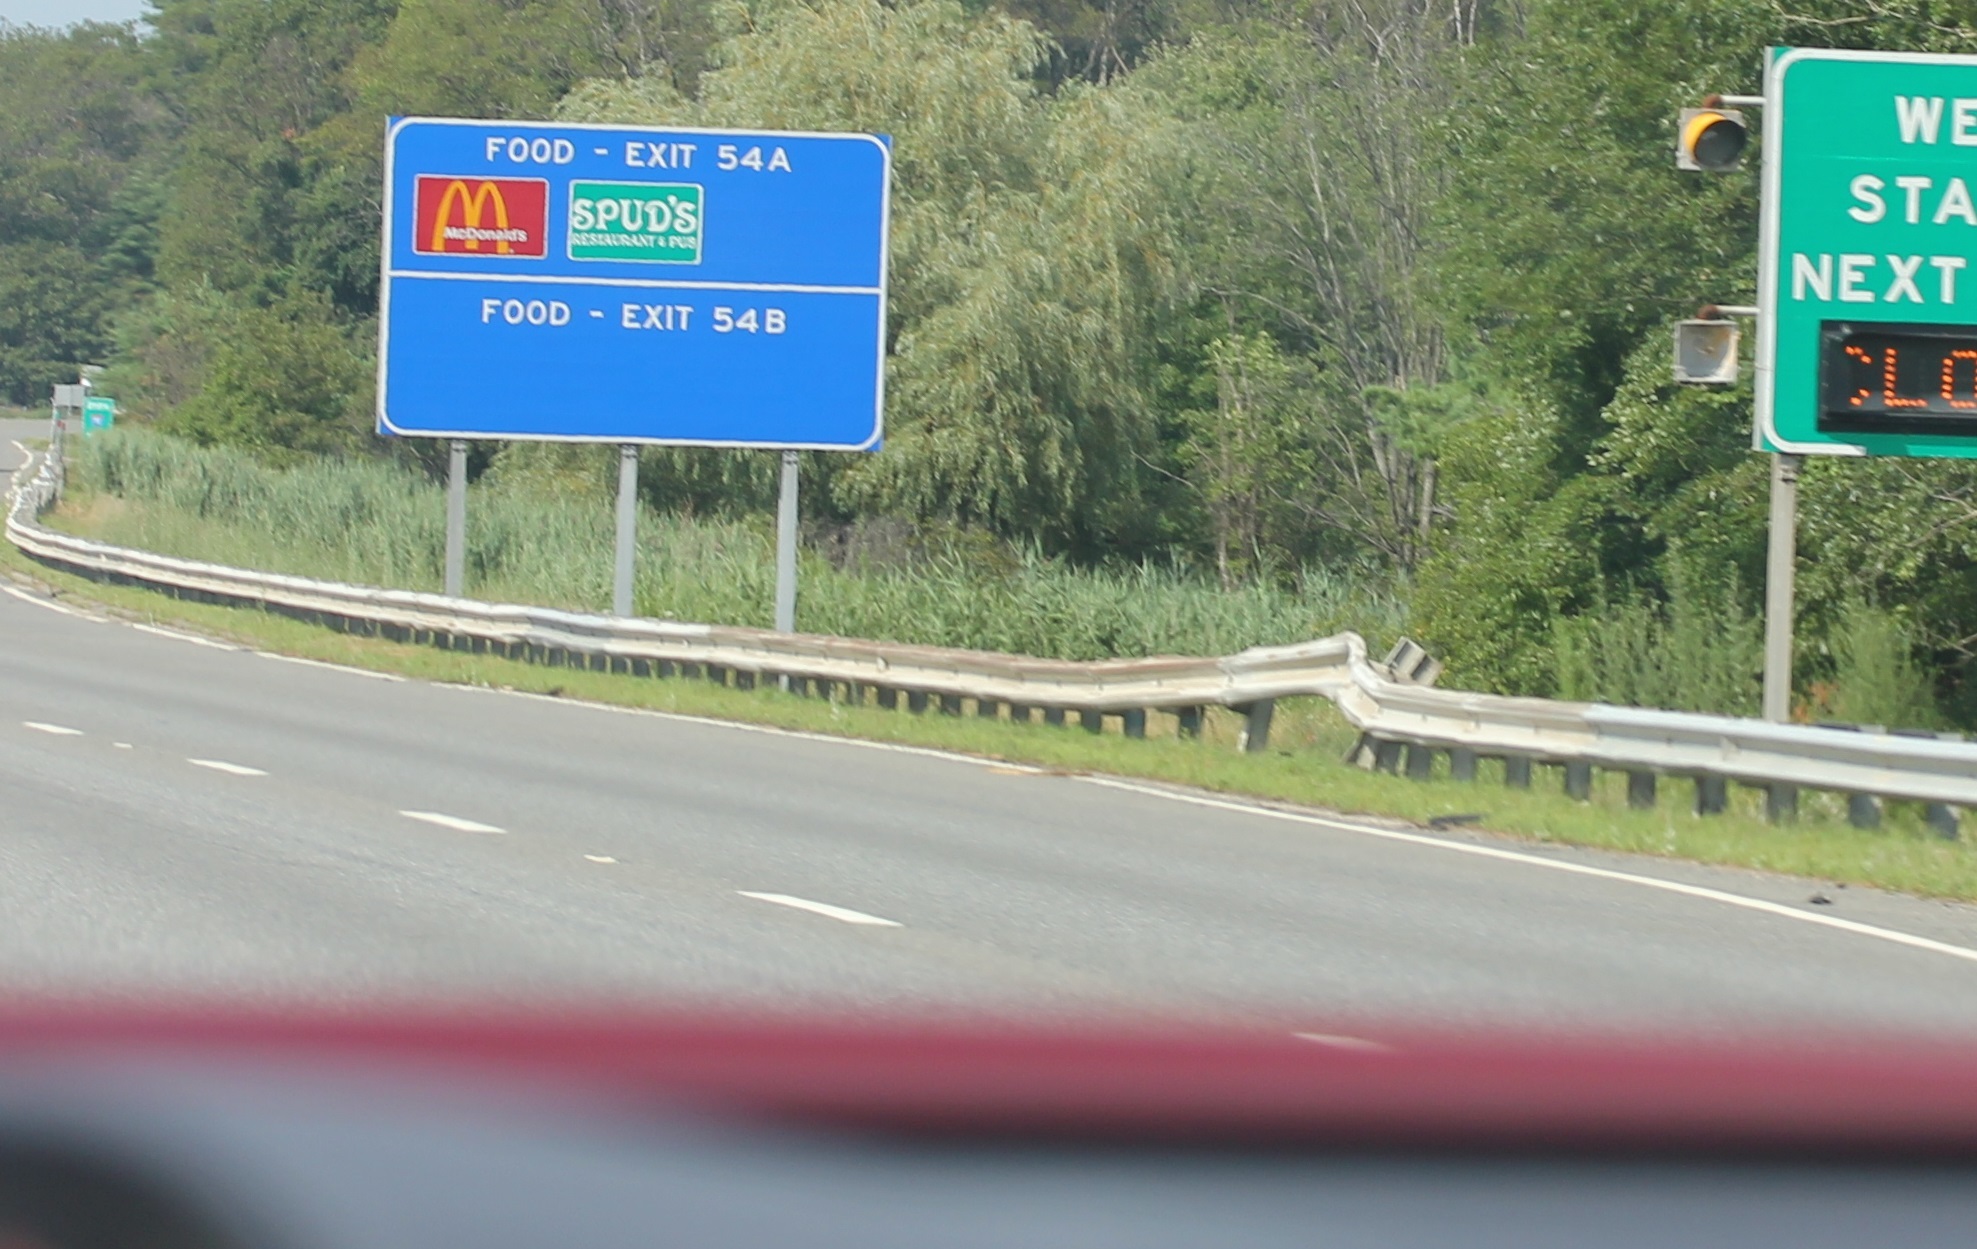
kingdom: Plantae
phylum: Tracheophyta
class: Liliopsida
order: Poales
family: Poaceae
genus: Phragmites
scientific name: Phragmites australis
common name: Common reed
